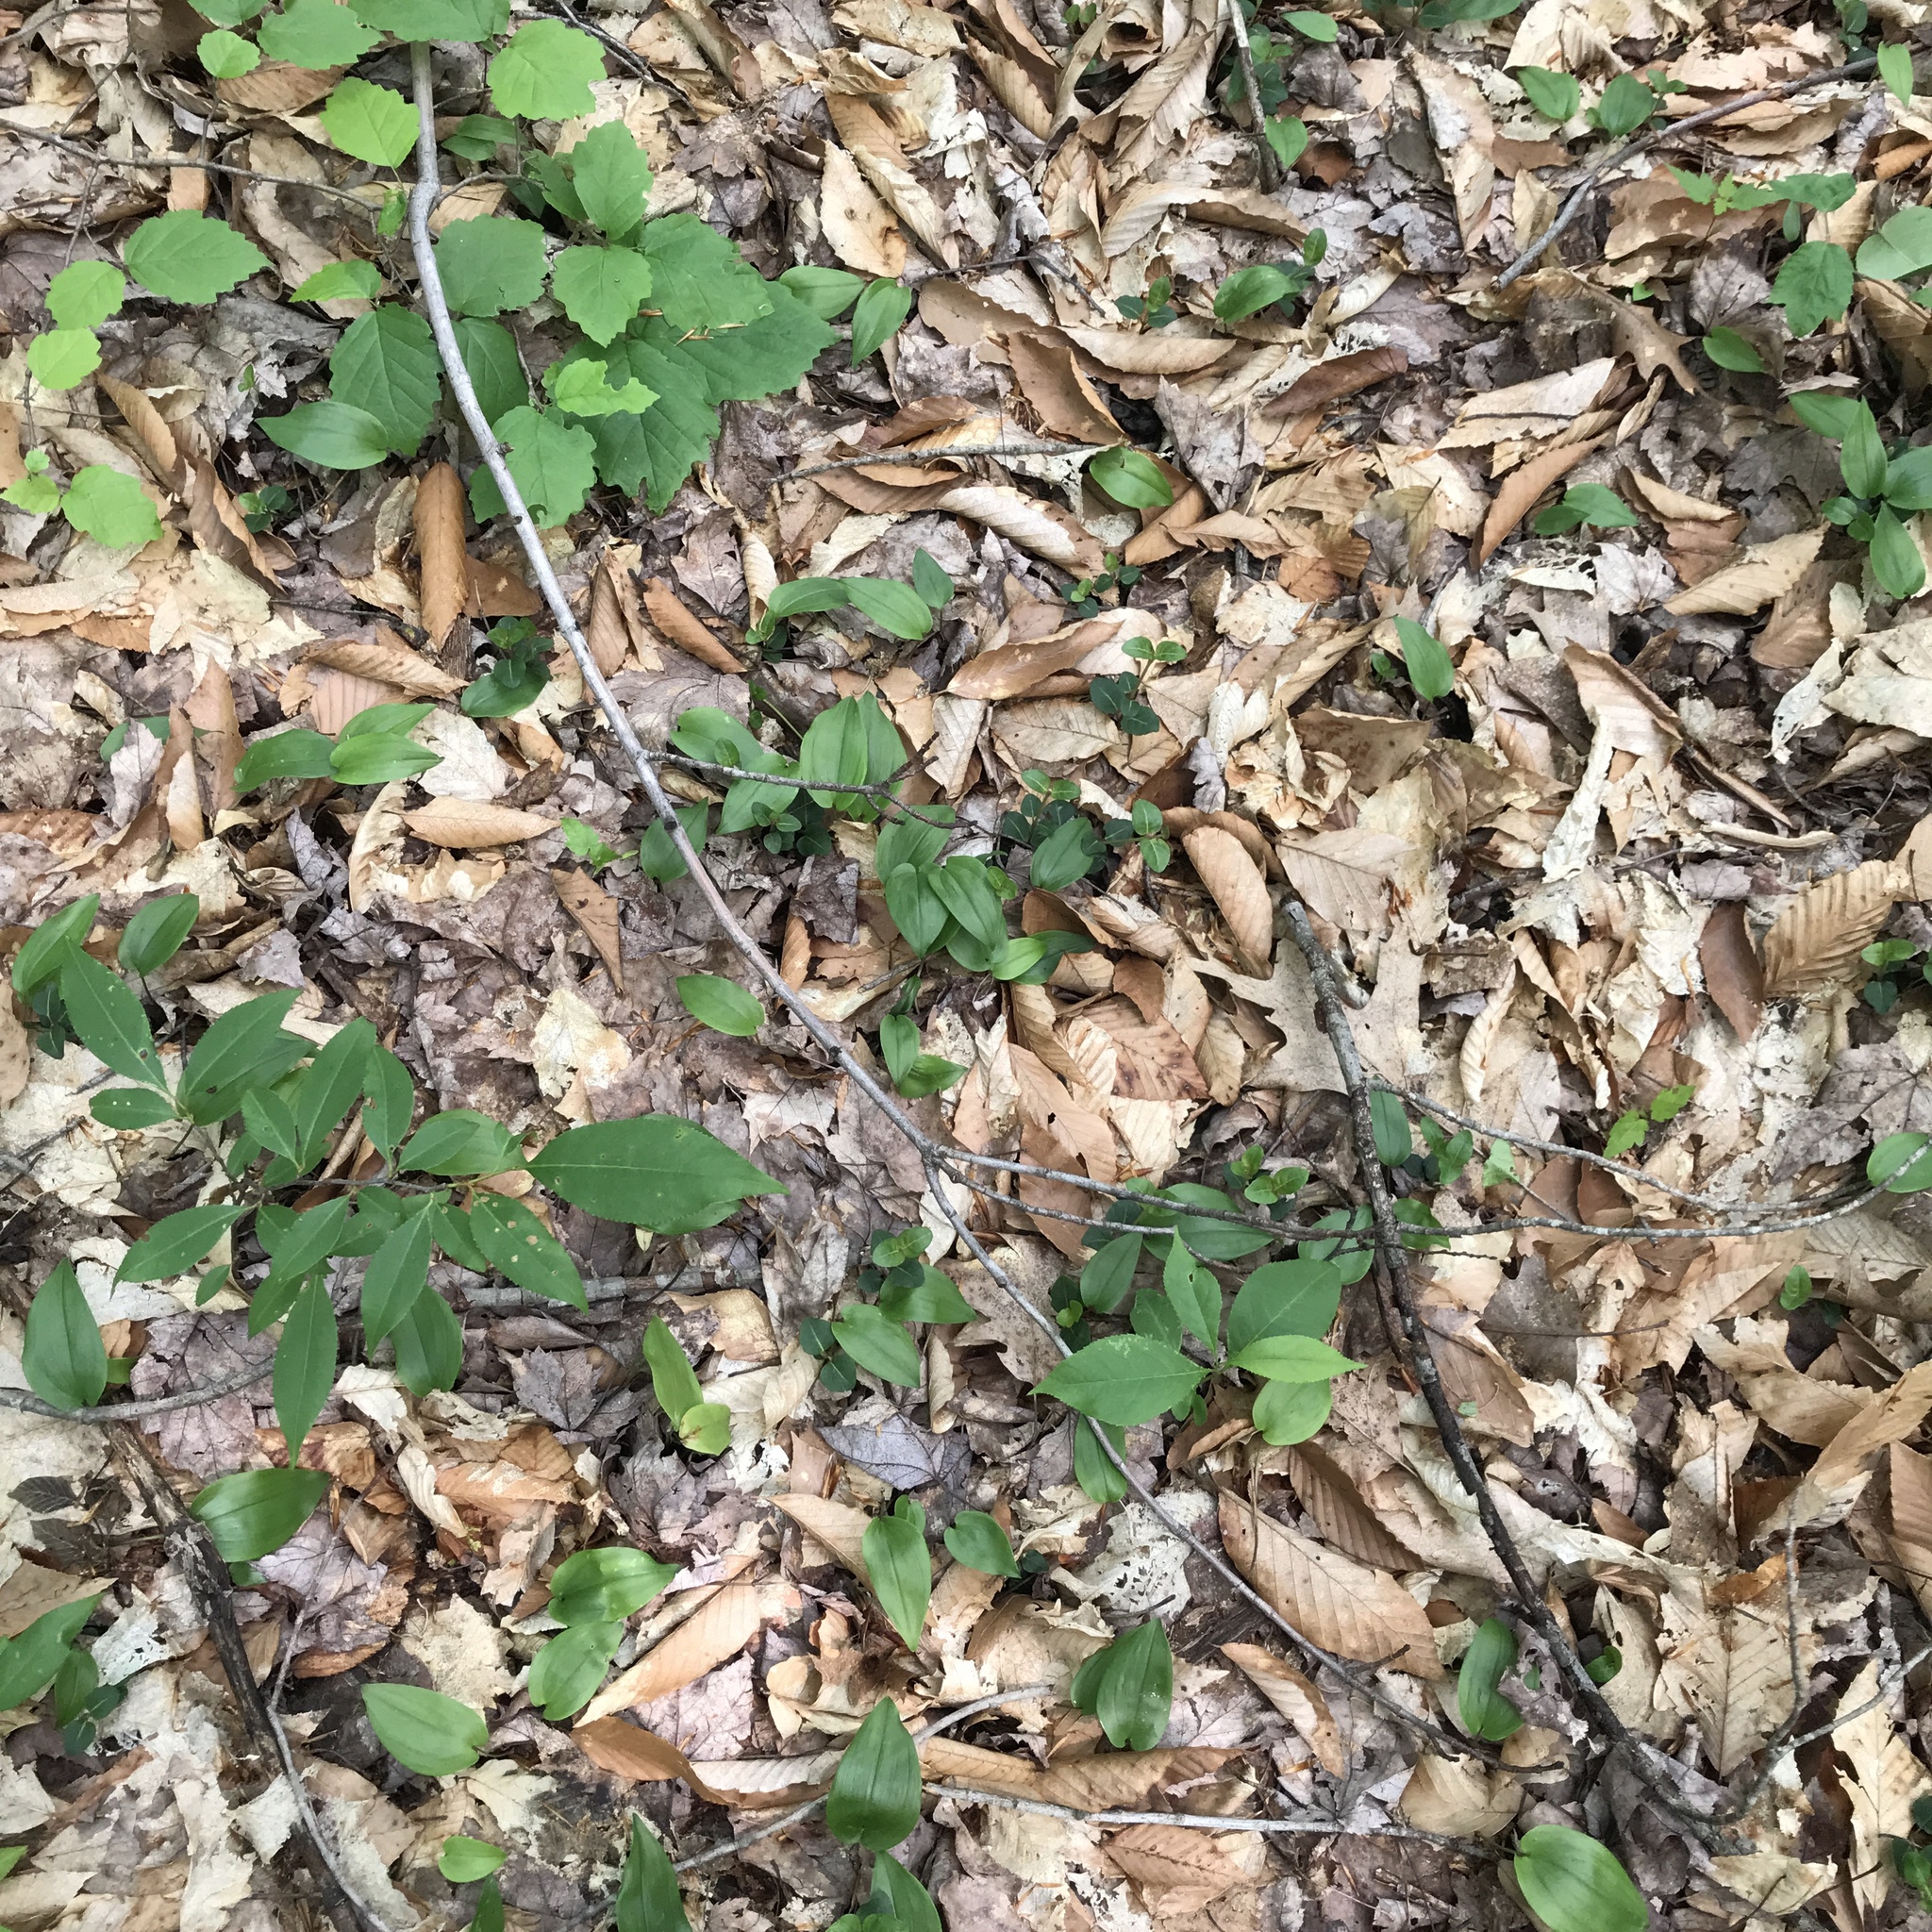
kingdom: Plantae
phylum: Tracheophyta
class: Magnoliopsida
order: Gentianales
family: Rubiaceae
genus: Mitchella
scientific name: Mitchella repens
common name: Partridge-berry
